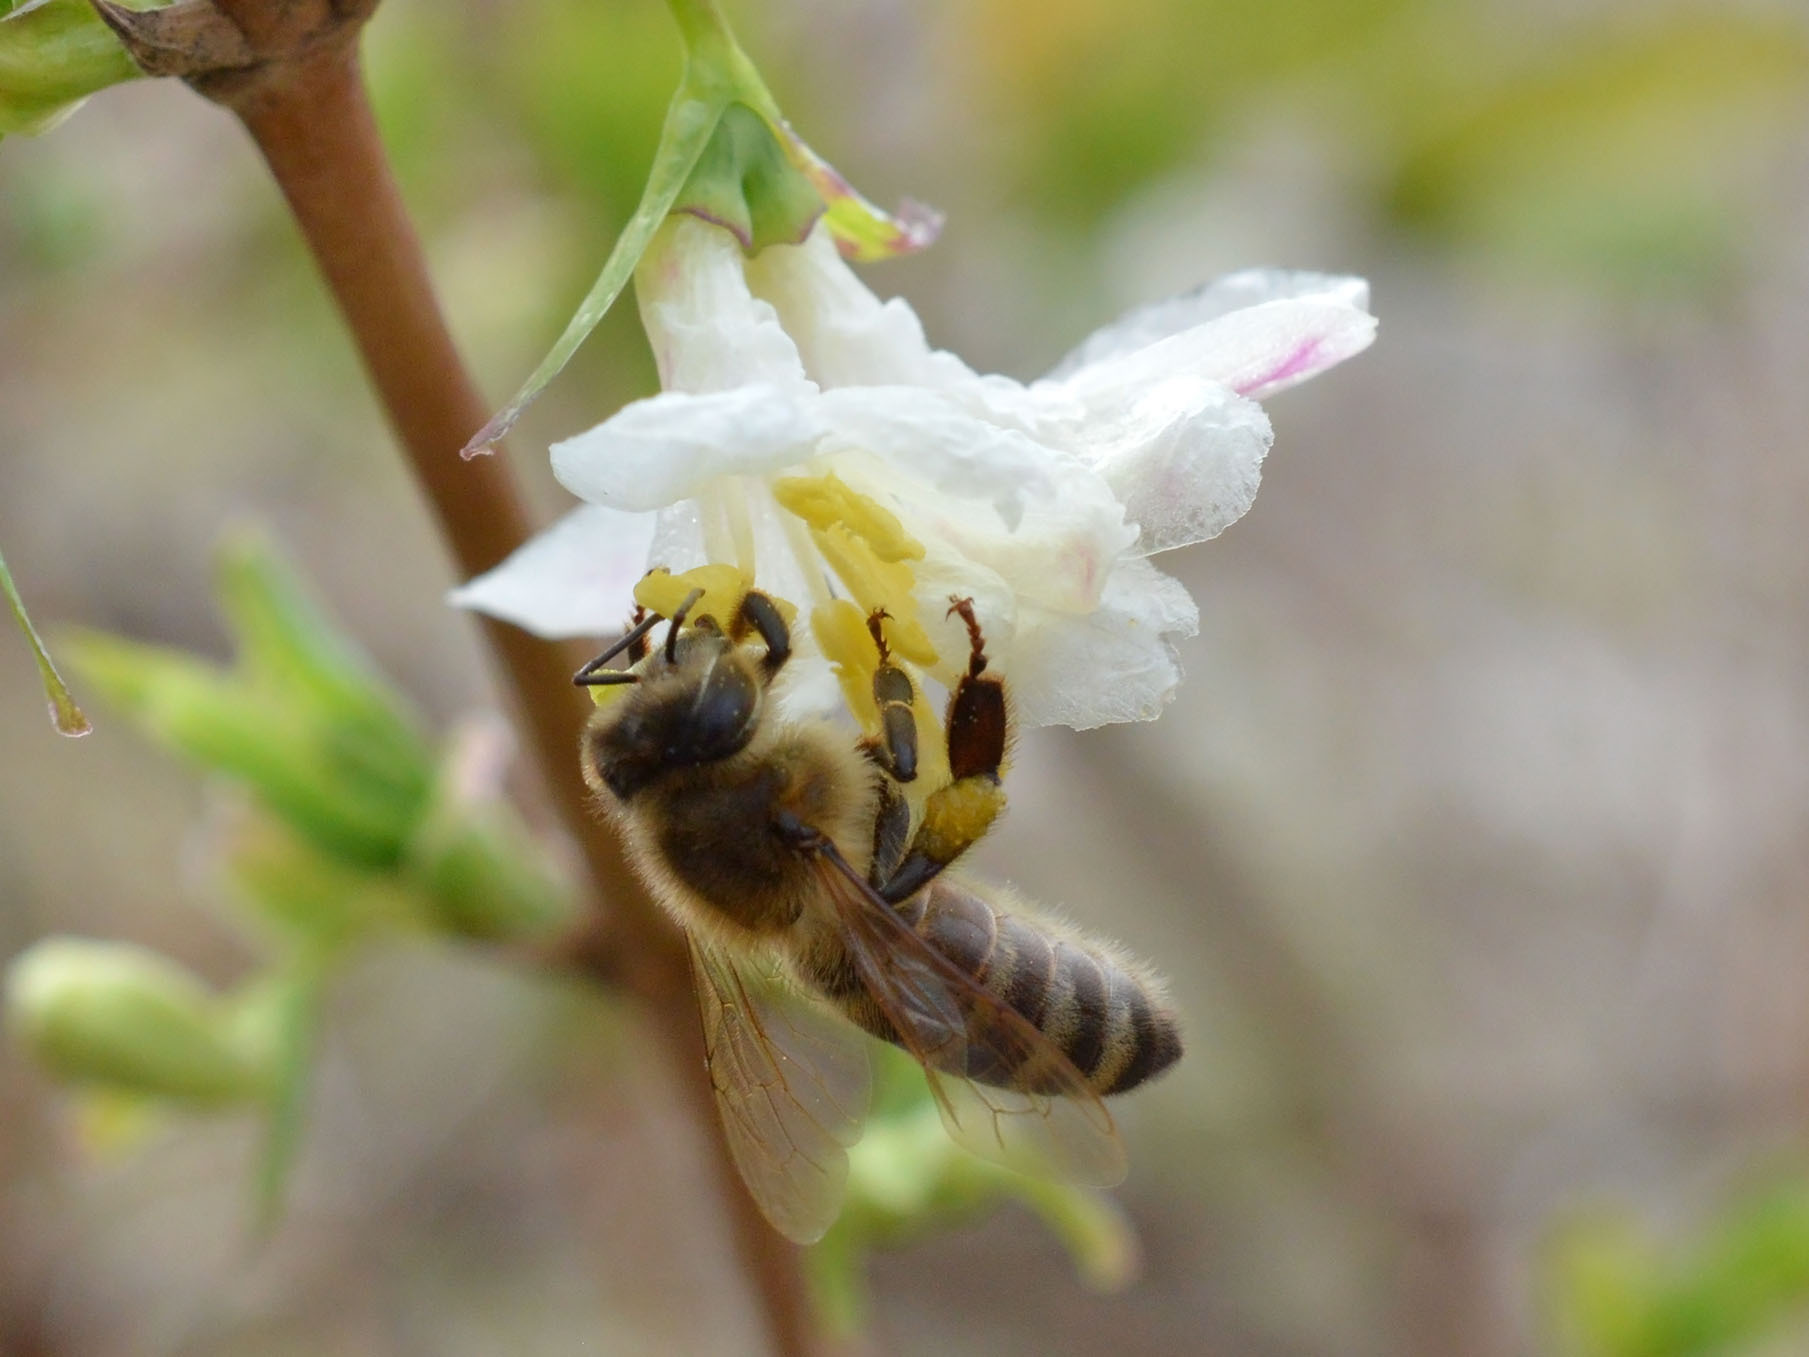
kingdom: Animalia
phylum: Arthropoda
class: Insecta
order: Hymenoptera
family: Apidae
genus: Apis
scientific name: Apis mellifera
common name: Honey bee
